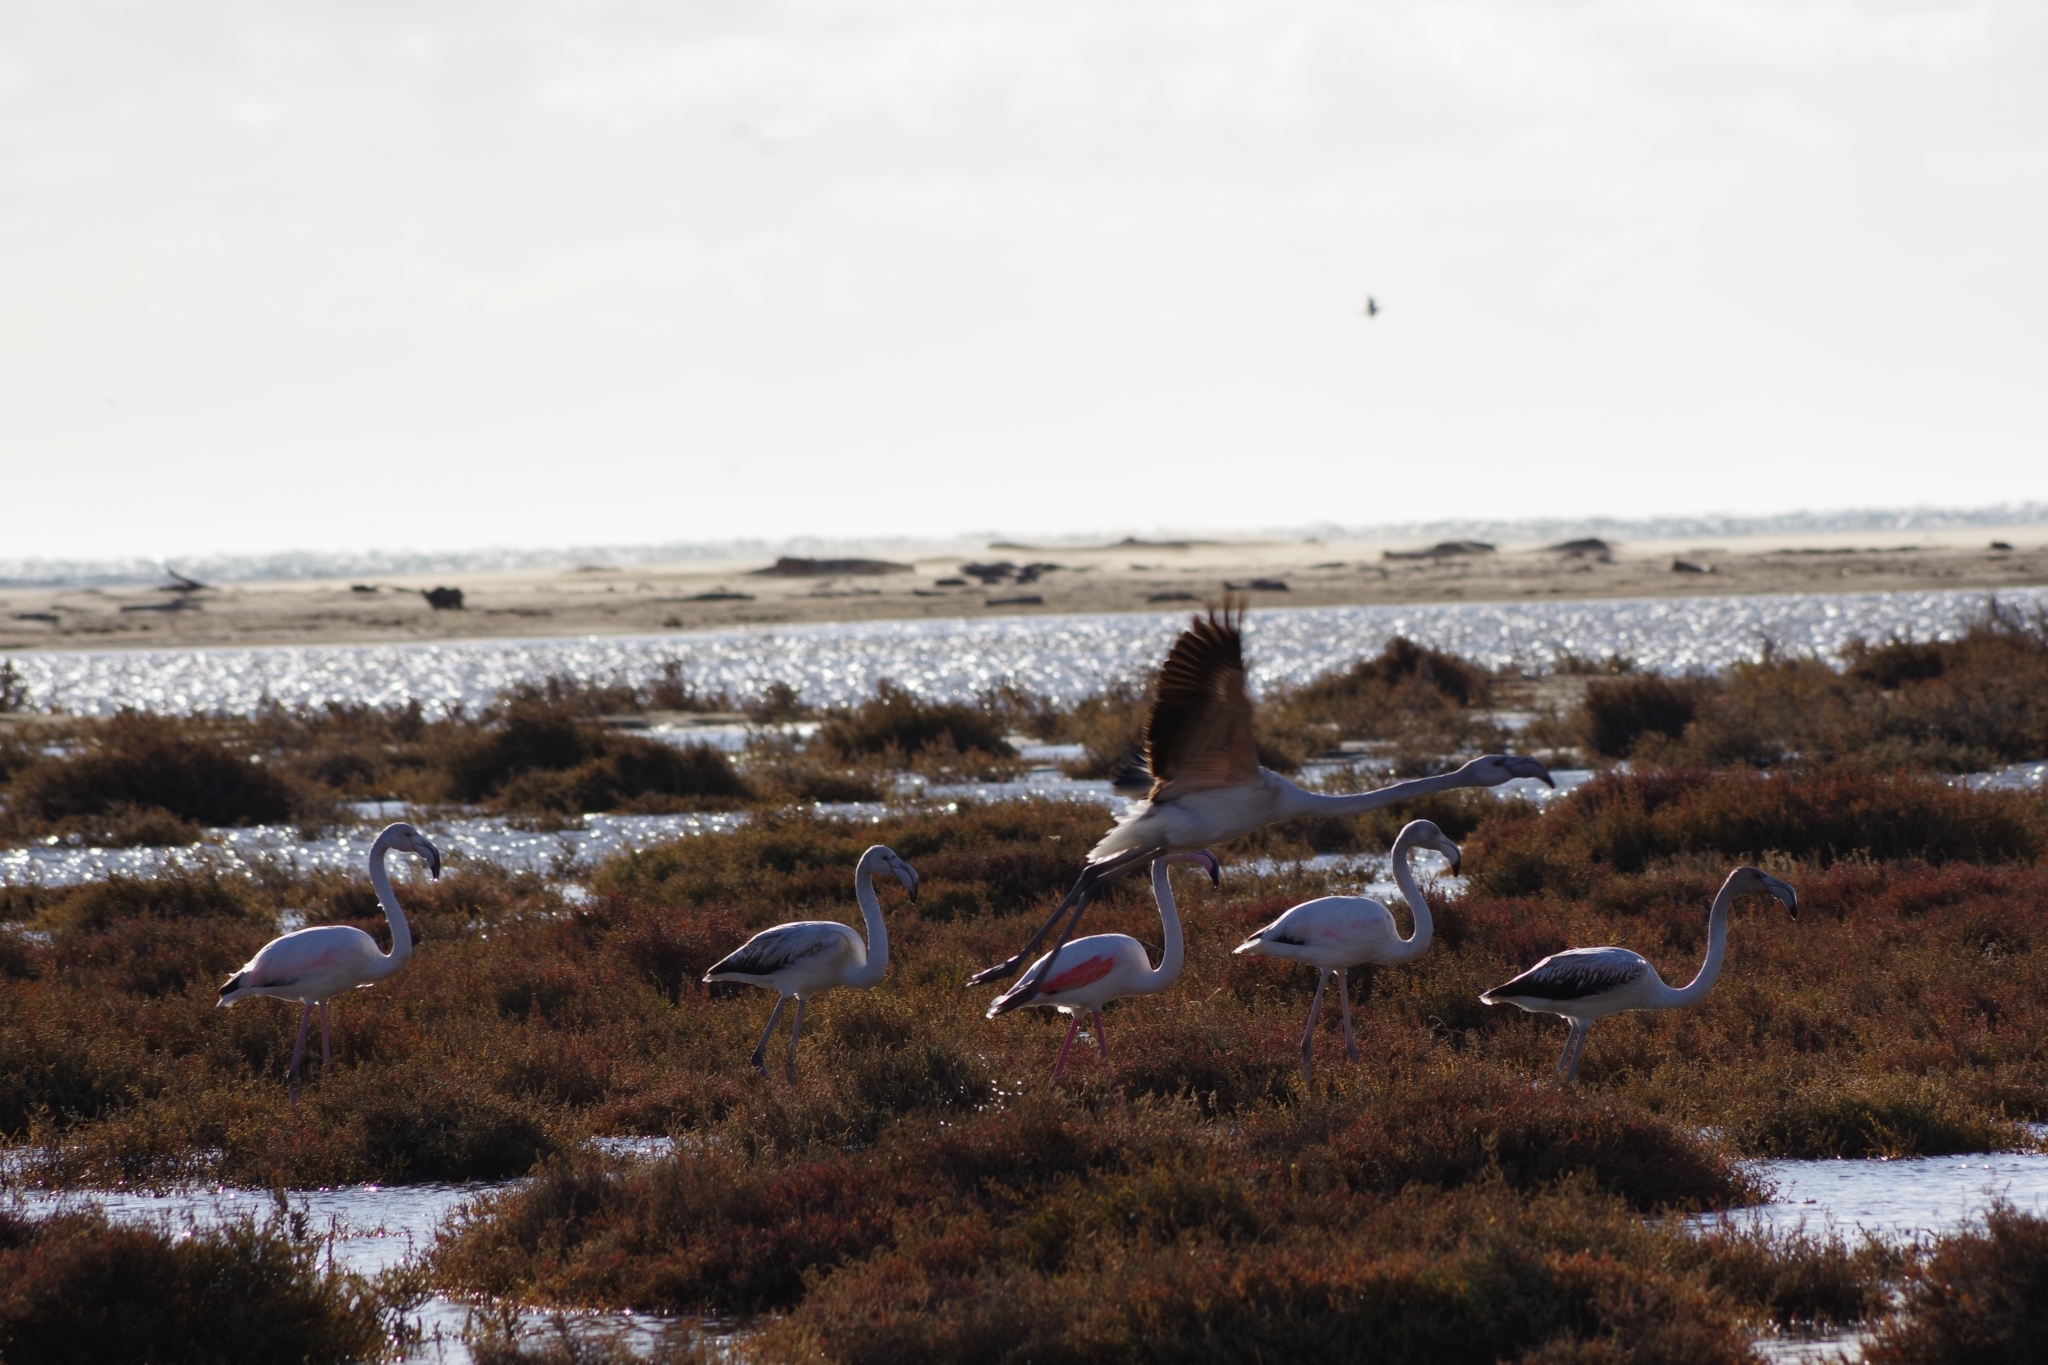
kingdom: Animalia
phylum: Chordata
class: Aves
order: Phoenicopteriformes
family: Phoenicopteridae
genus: Phoenicopterus
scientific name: Phoenicopterus roseus
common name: Greater flamingo
